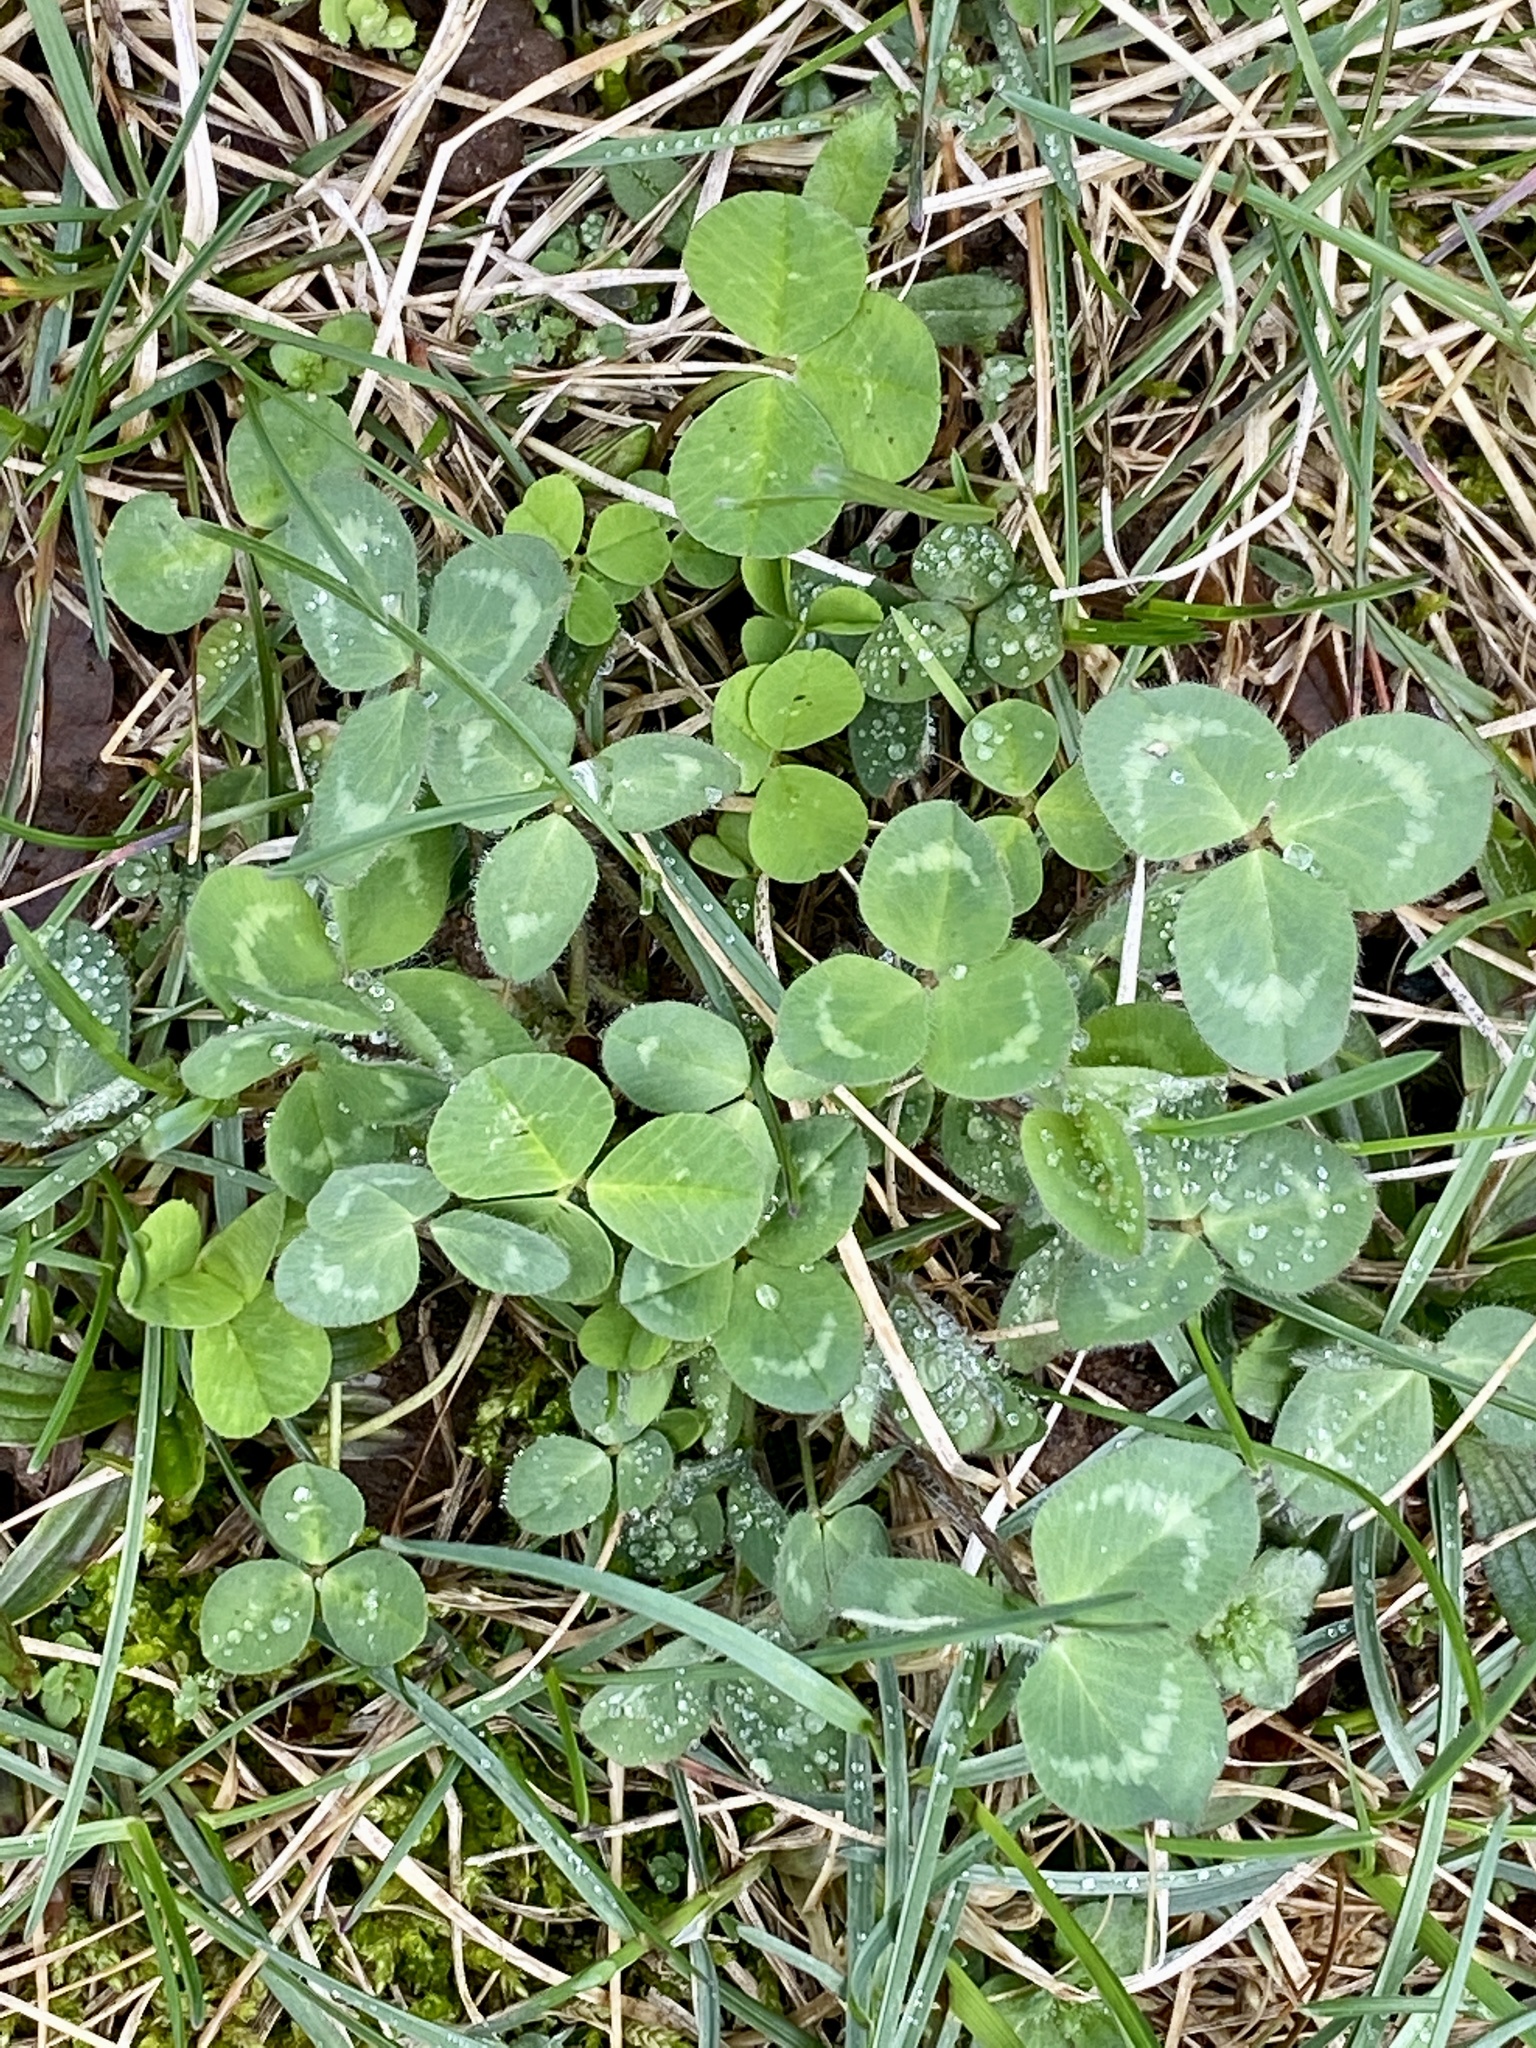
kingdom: Plantae
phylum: Tracheophyta
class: Magnoliopsida
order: Fabales
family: Fabaceae
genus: Trifolium
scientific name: Trifolium repens
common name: White clover
